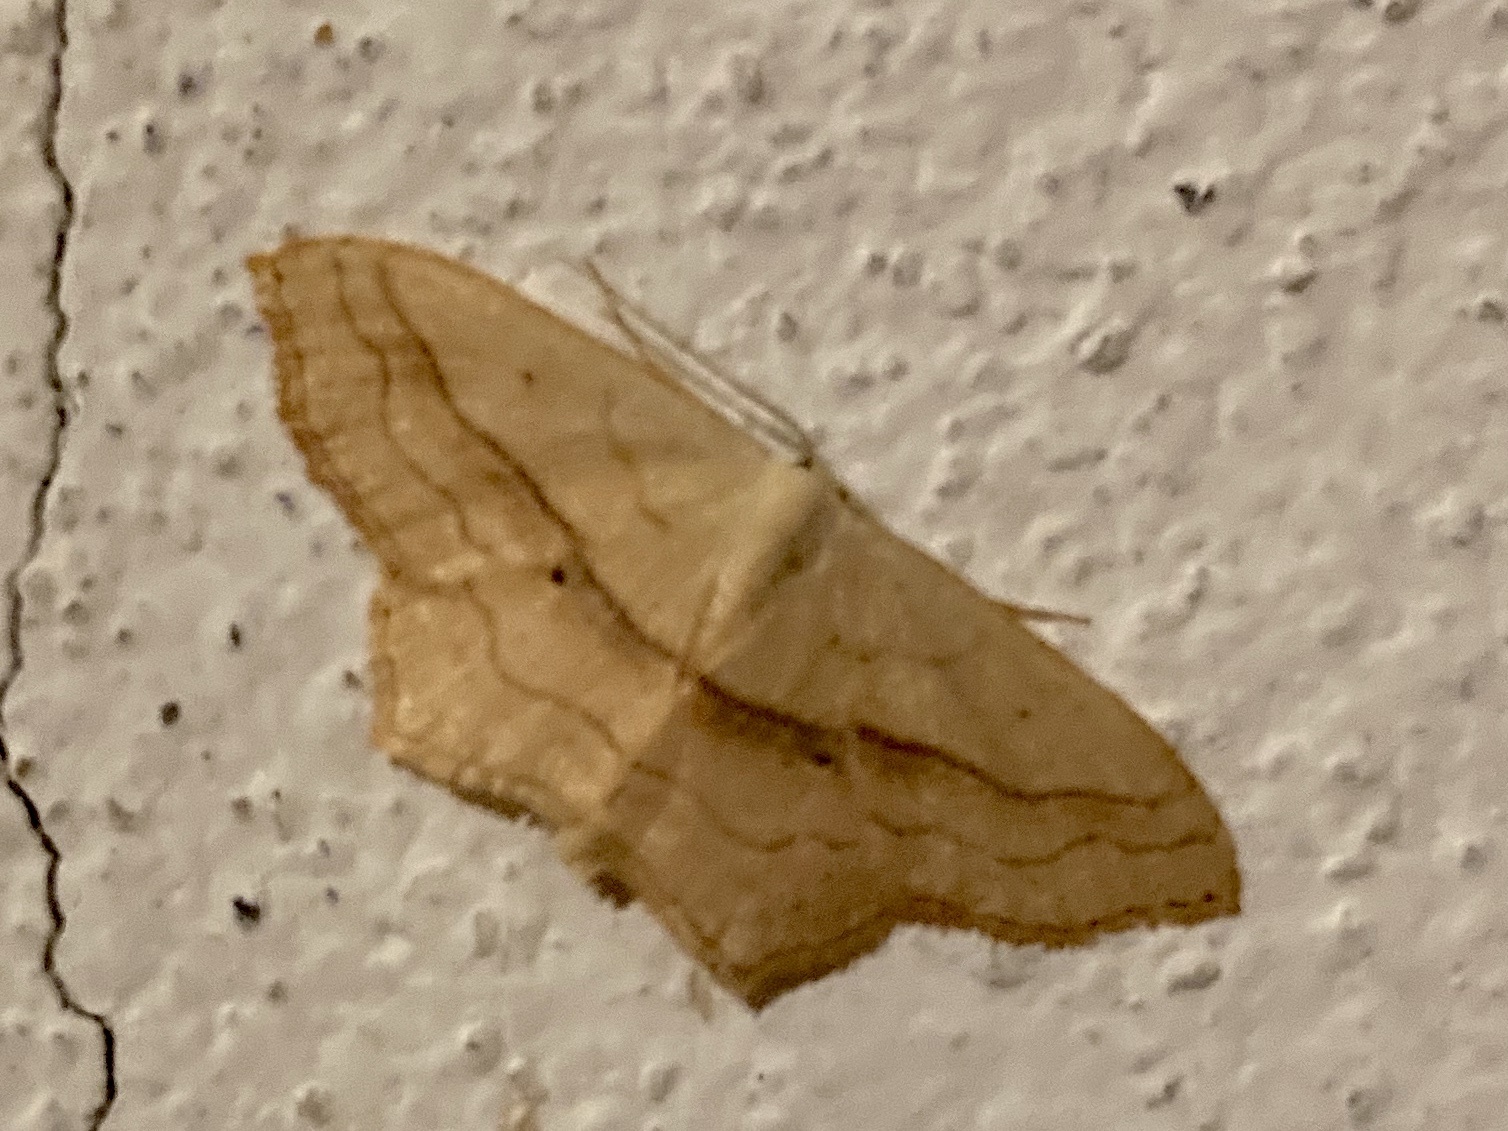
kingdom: Animalia
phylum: Arthropoda
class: Insecta
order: Lepidoptera
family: Geometridae
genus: Scopula
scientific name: Scopula imitaria
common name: Small blood-vein
